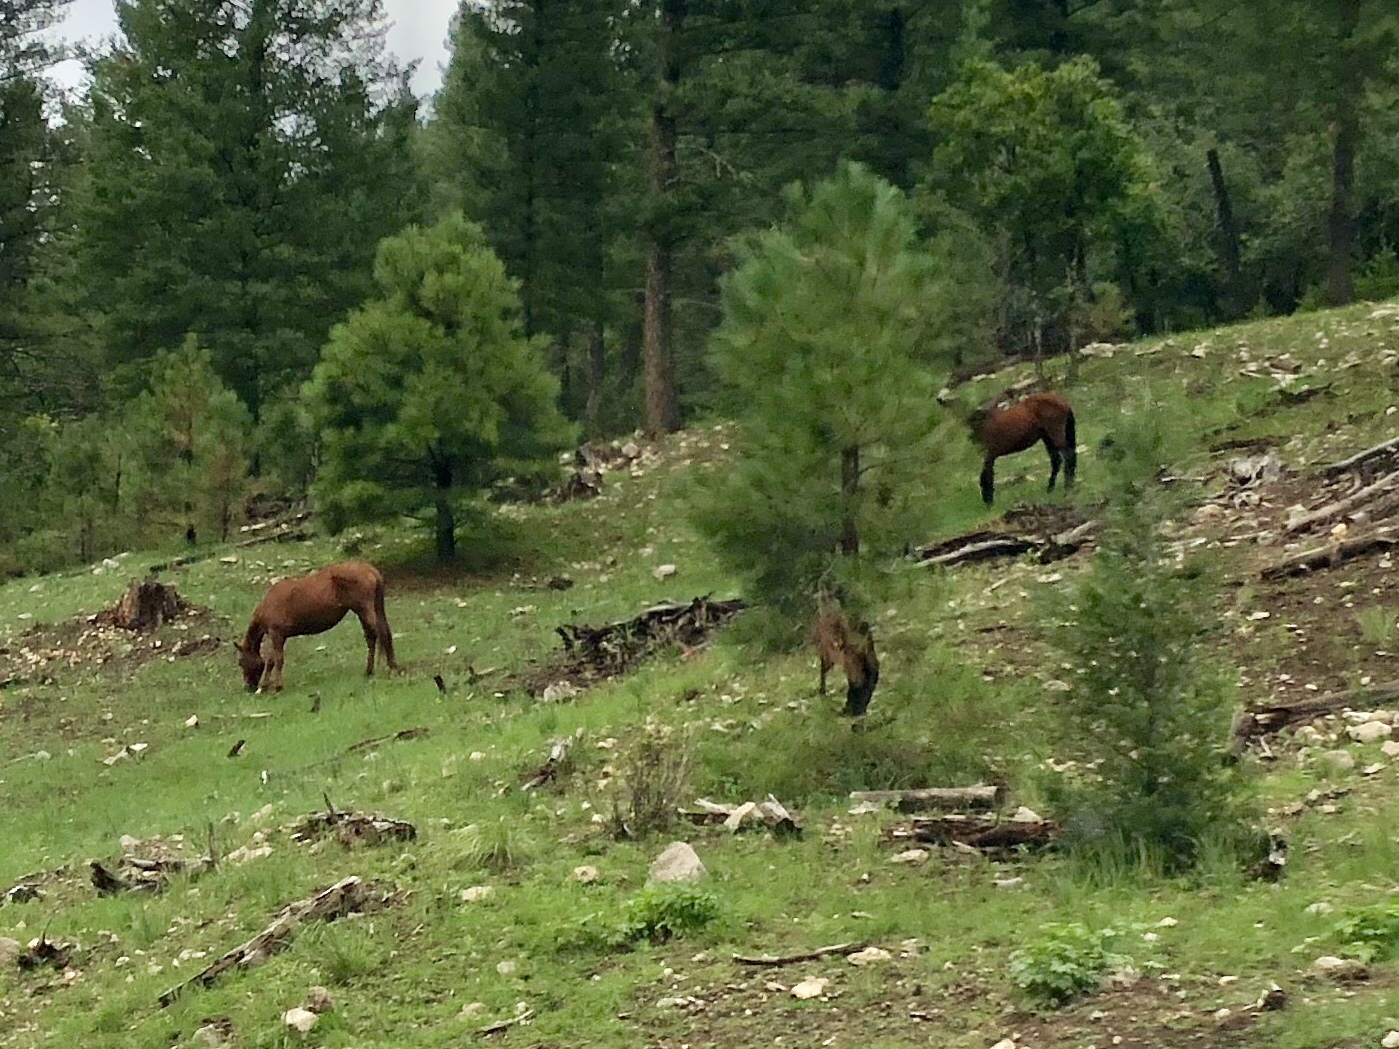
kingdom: Animalia
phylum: Chordata
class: Mammalia
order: Perissodactyla
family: Equidae
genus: Equus
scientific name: Equus caballus
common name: Horse
